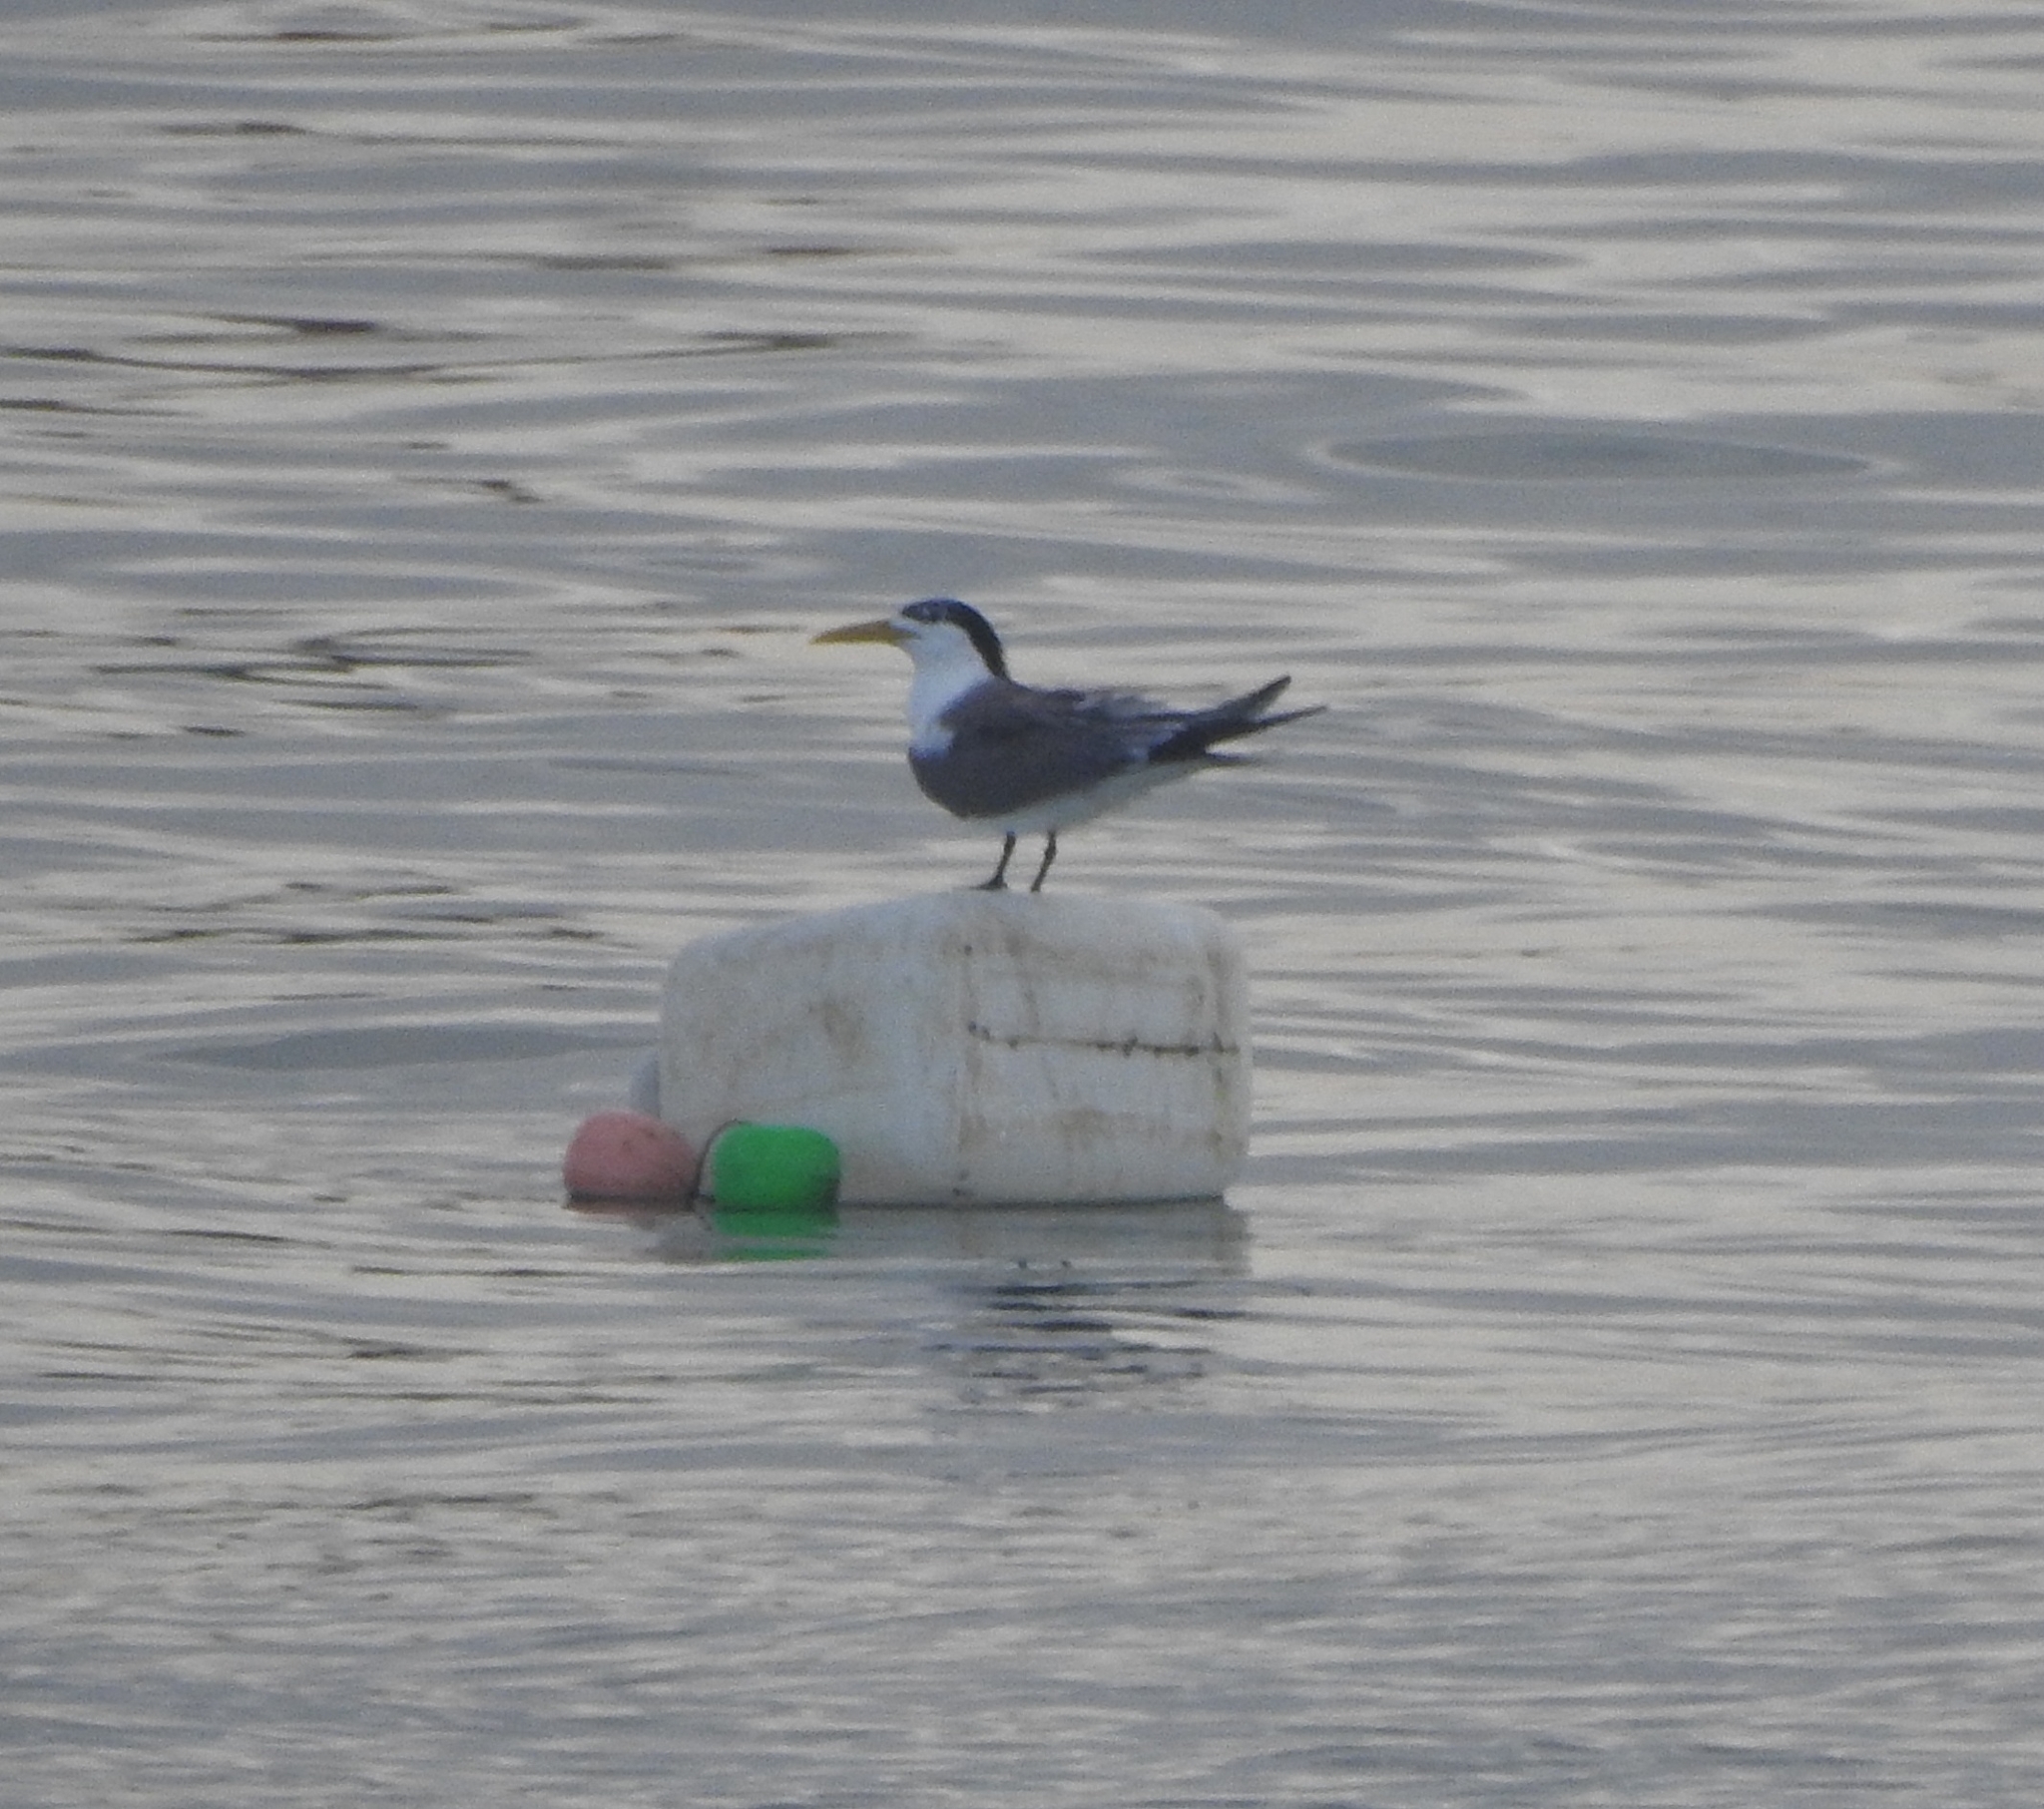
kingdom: Animalia
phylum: Chordata
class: Aves
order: Charadriiformes
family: Laridae
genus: Thalasseus
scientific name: Thalasseus bergii
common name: Greater crested tern
